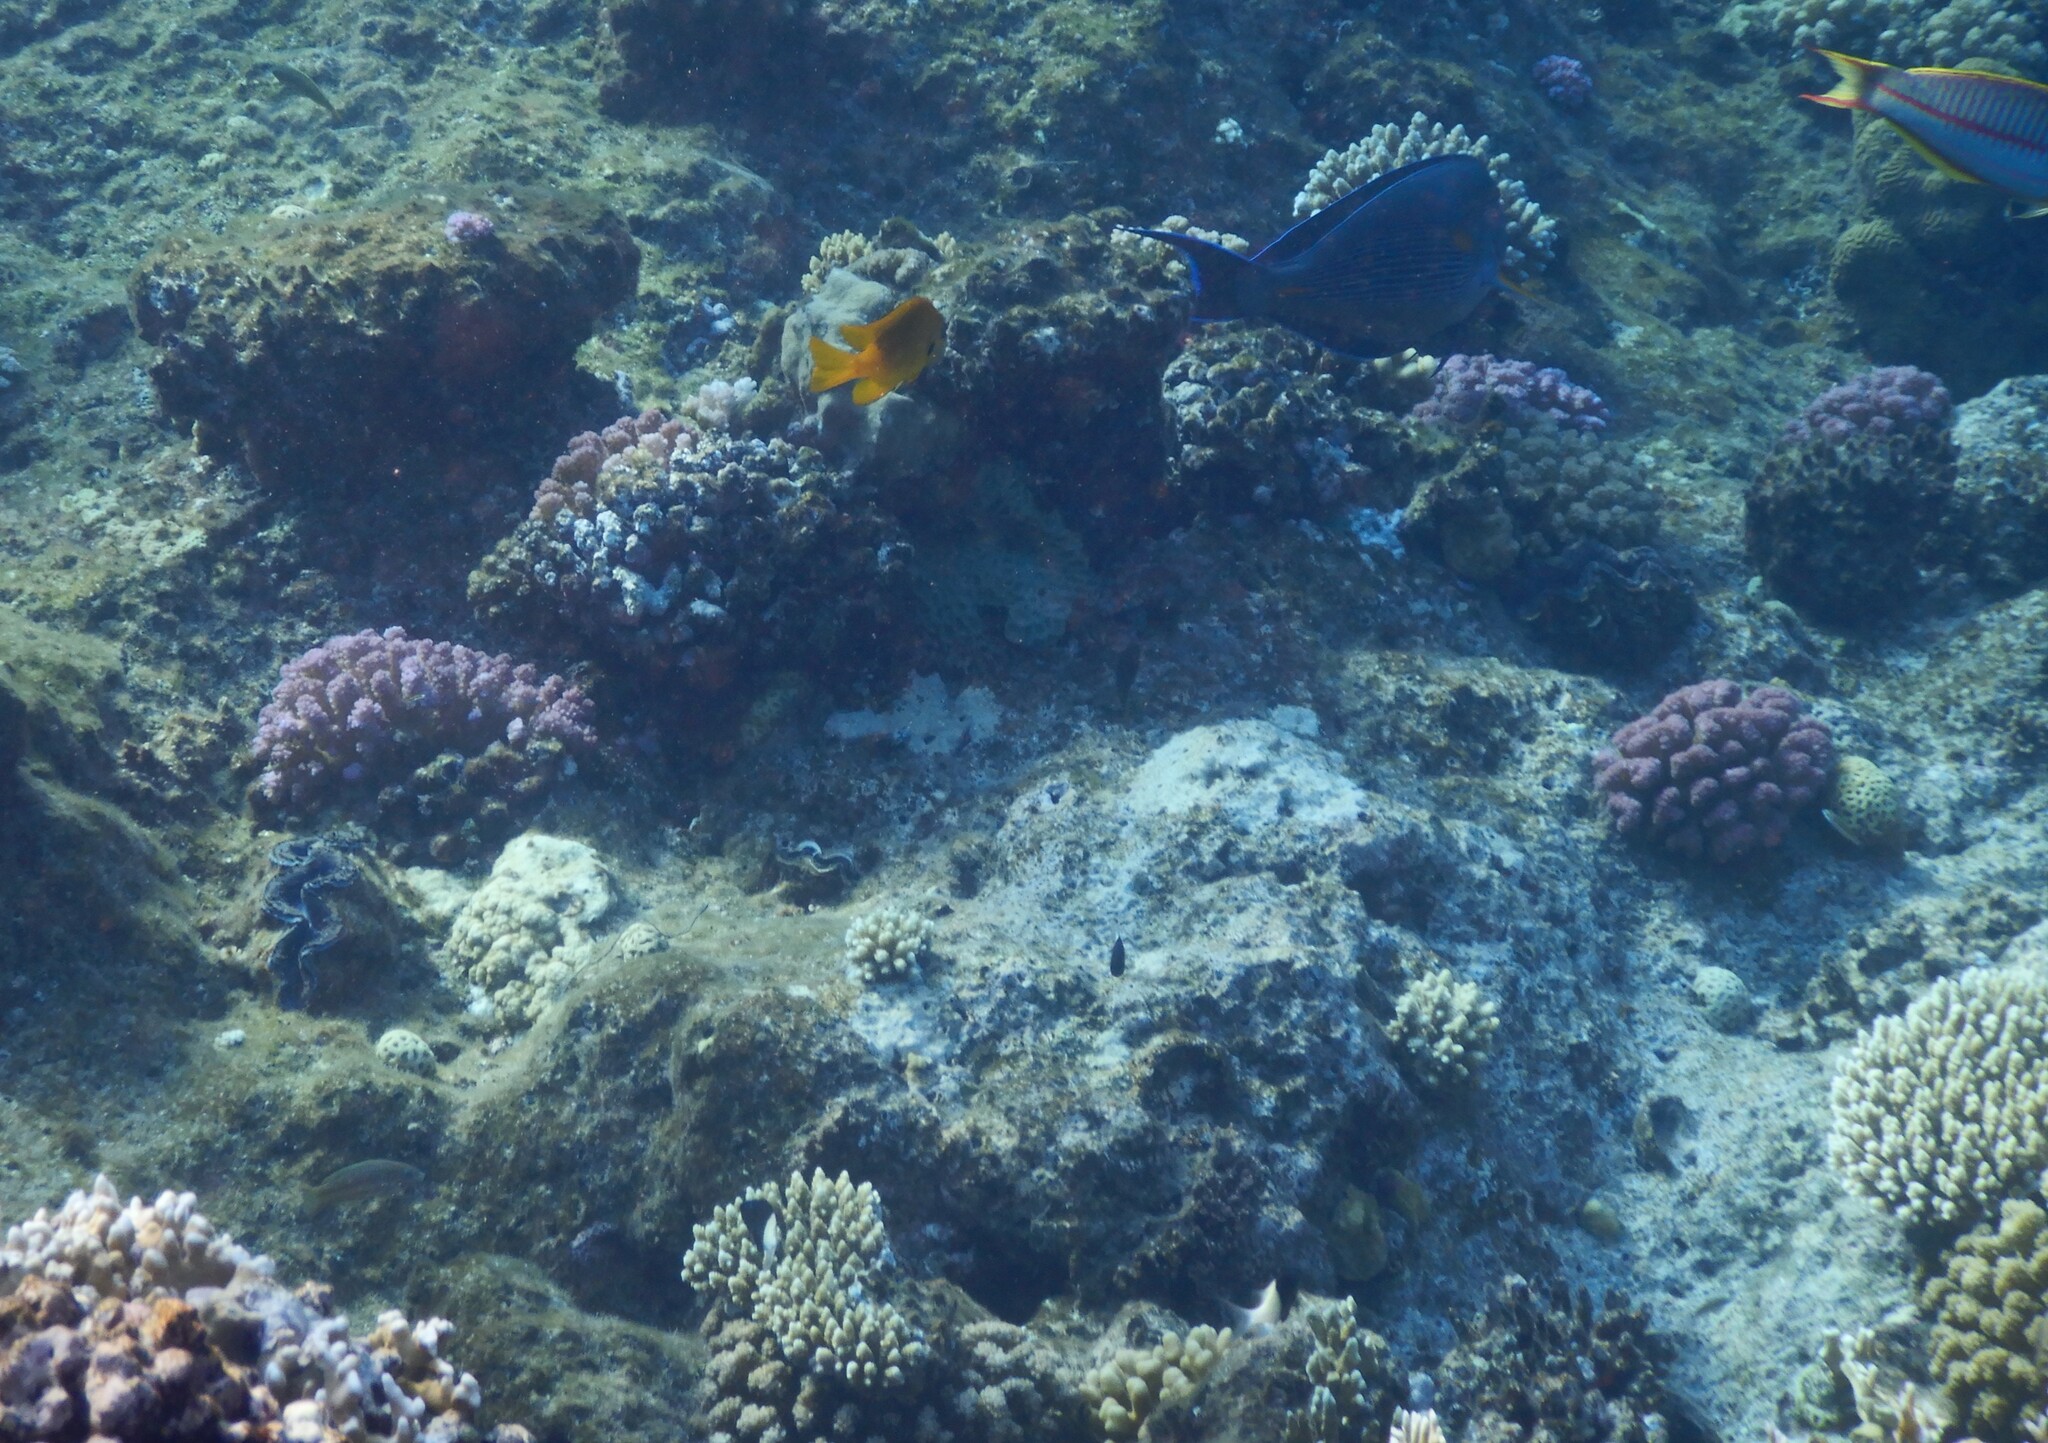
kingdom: Animalia
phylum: Chordata
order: Perciformes
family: Acanthuridae
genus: Acanthurus
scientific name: Acanthurus sohal
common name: Red sea surgeonfish
